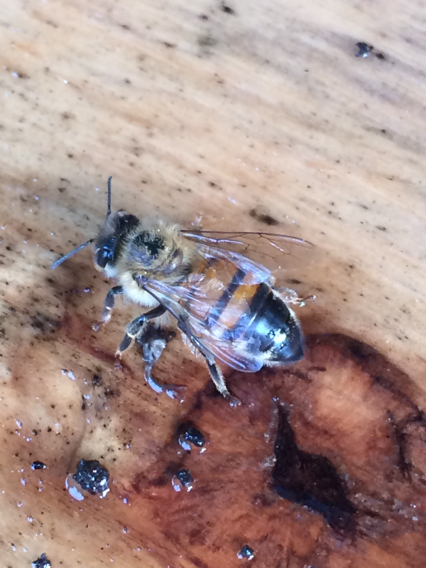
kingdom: Animalia
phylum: Arthropoda
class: Insecta
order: Hymenoptera
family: Apidae
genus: Apis
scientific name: Apis mellifera
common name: Honey bee
